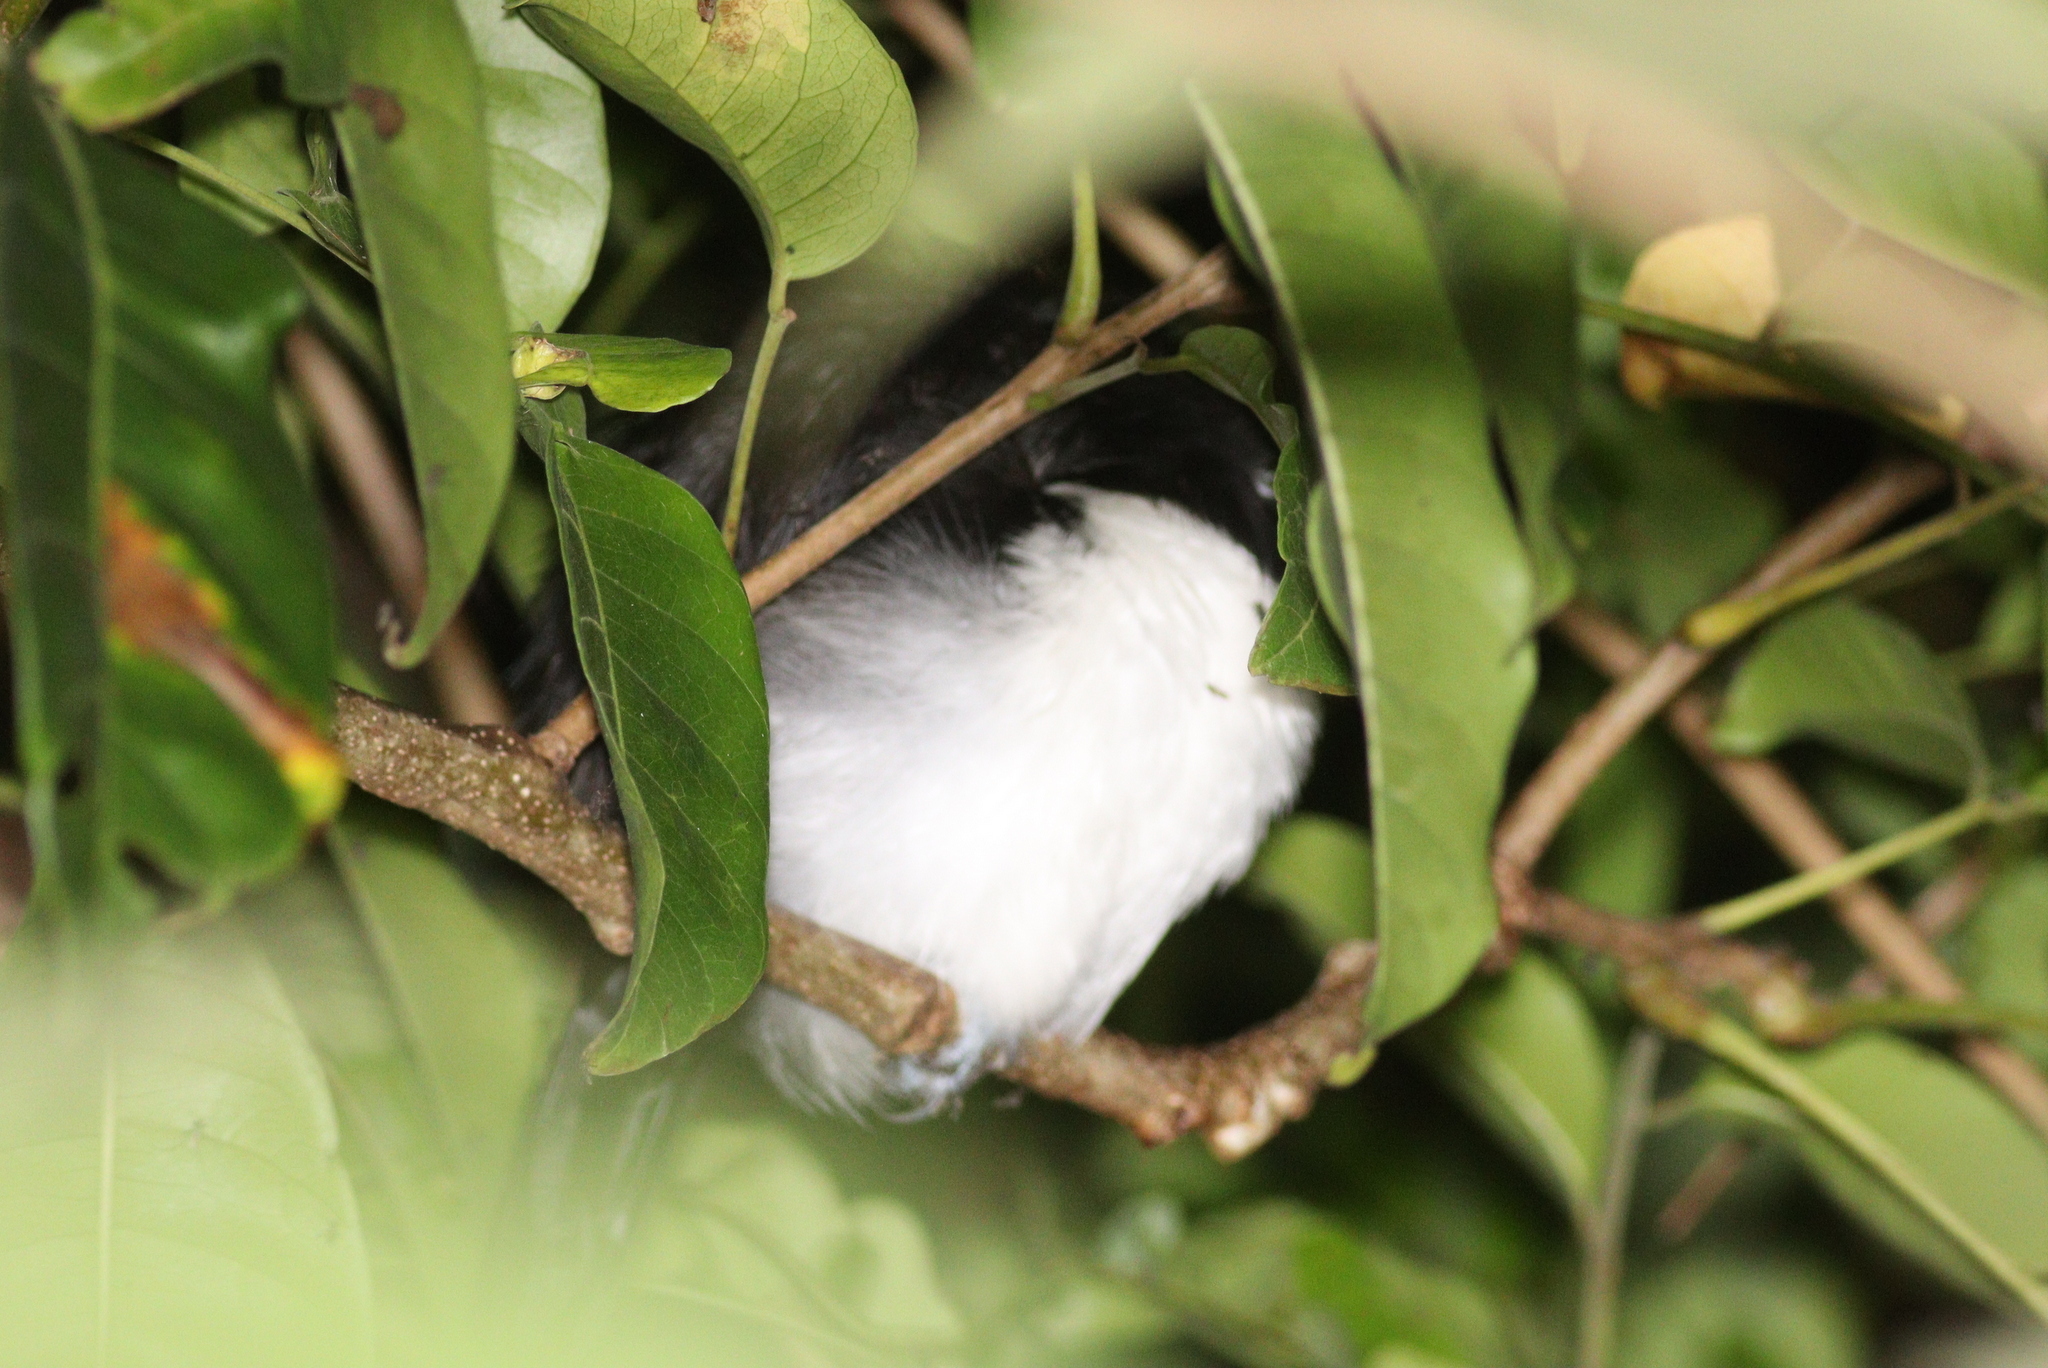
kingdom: Animalia
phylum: Chordata
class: Aves
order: Passeriformes
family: Thamnophilidae
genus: Taraba
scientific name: Taraba major
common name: Great antshrike
